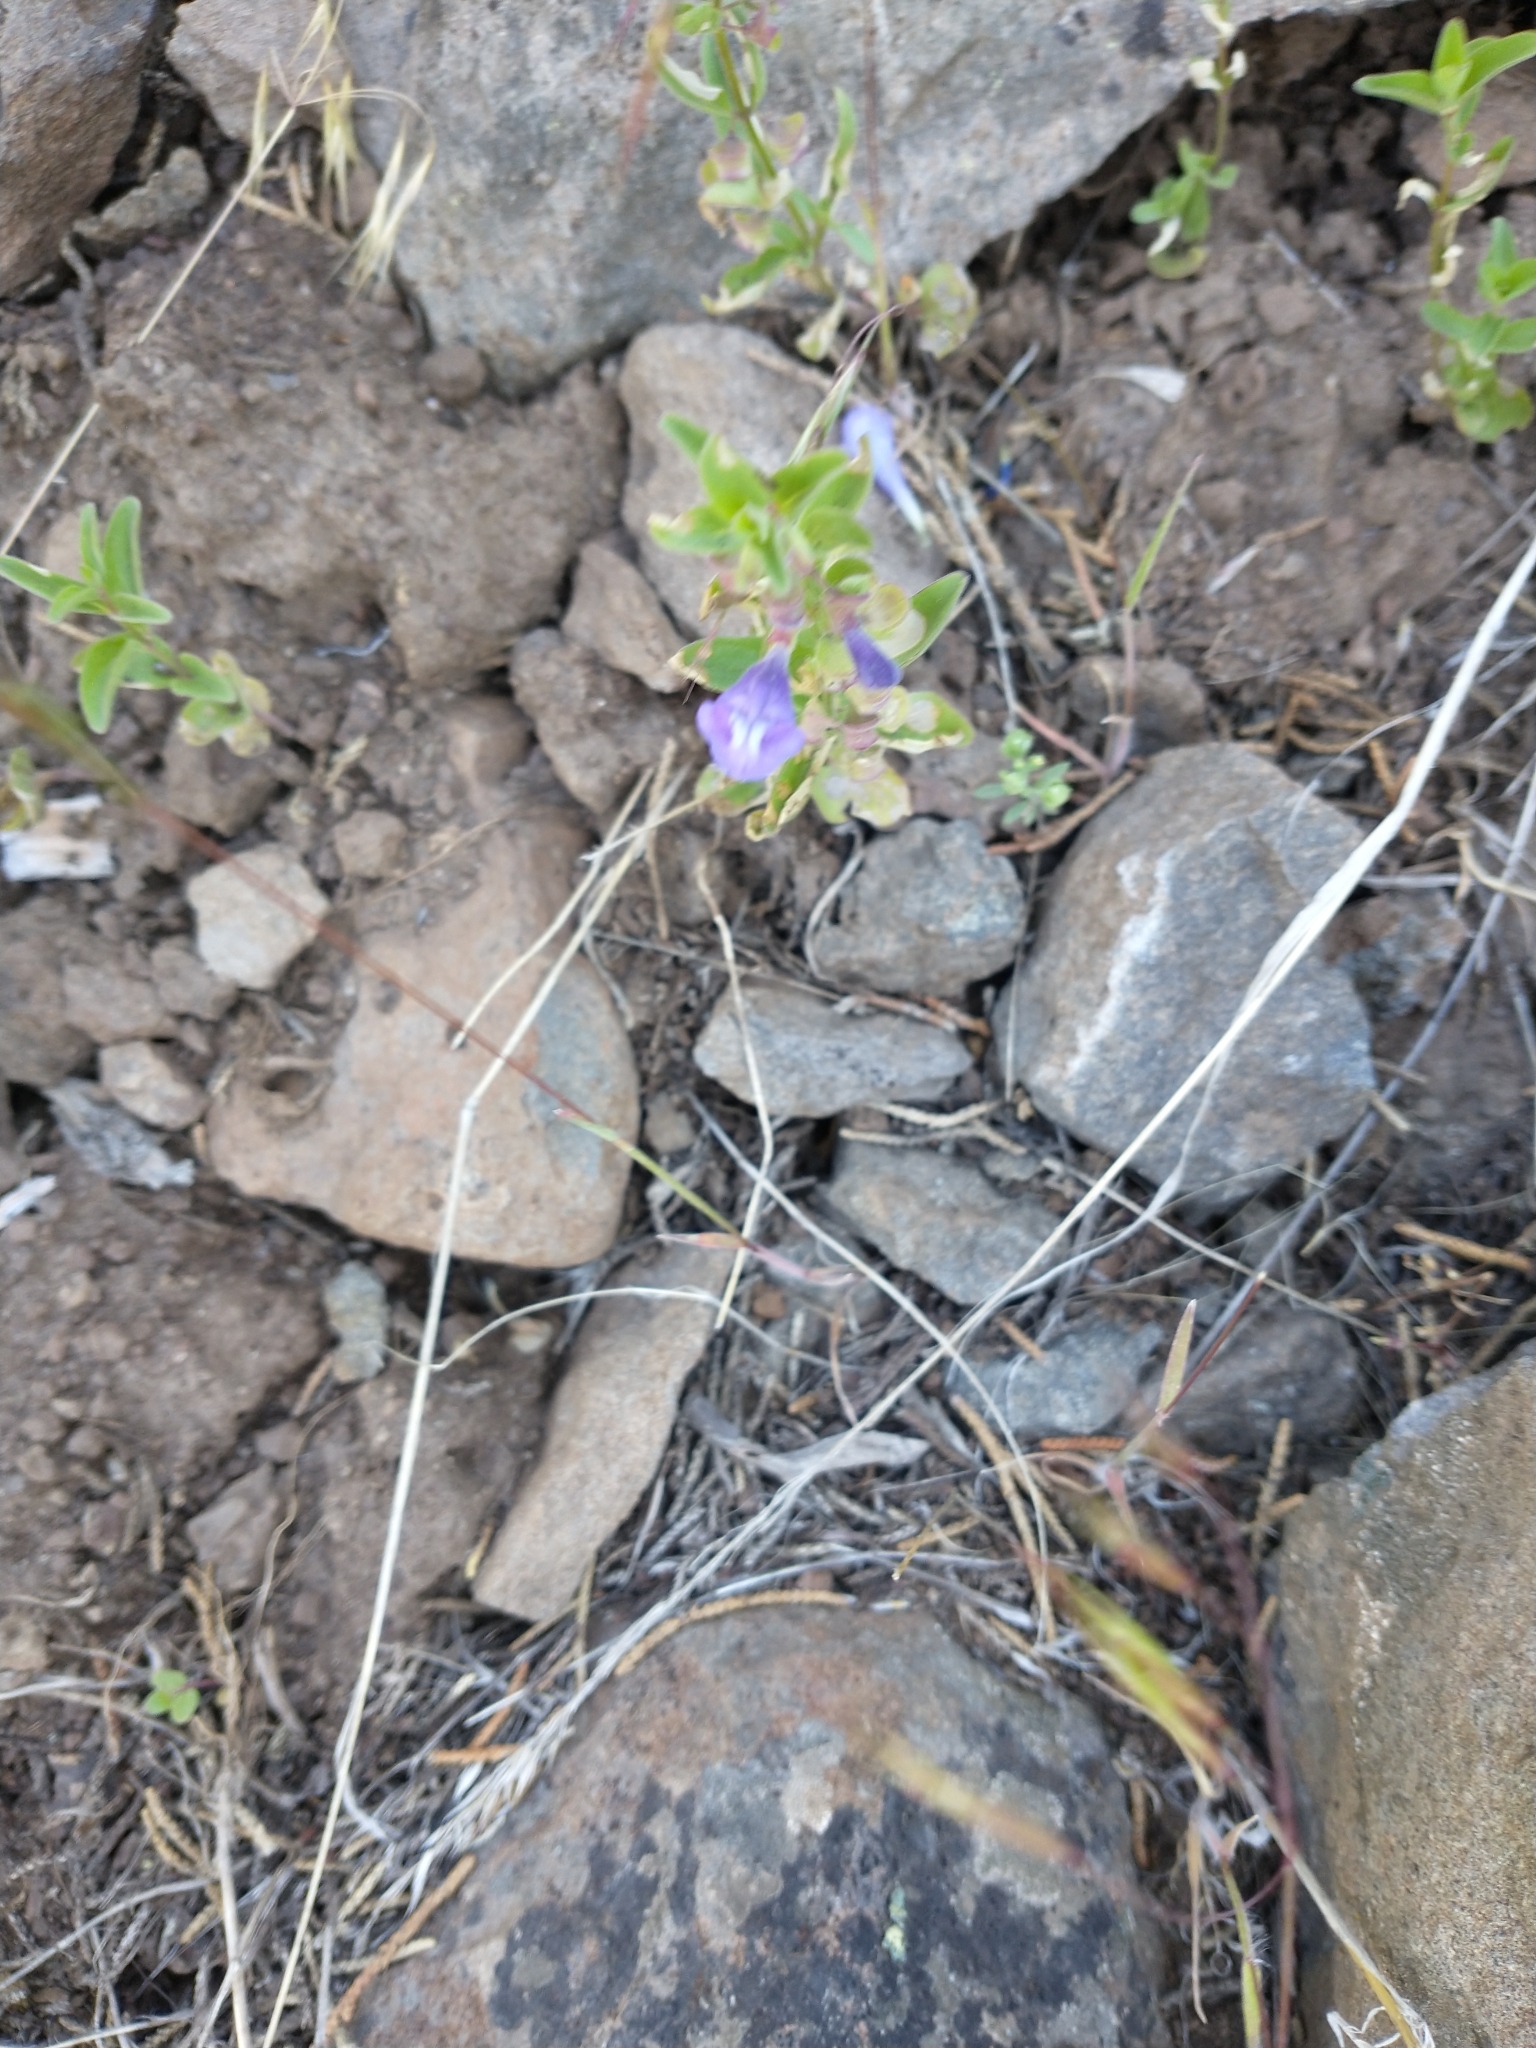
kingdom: Plantae
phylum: Tracheophyta
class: Magnoliopsida
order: Lamiales
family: Lamiaceae
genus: Scutellaria
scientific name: Scutellaria angustifolia
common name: Narrow-leaved skullcap
